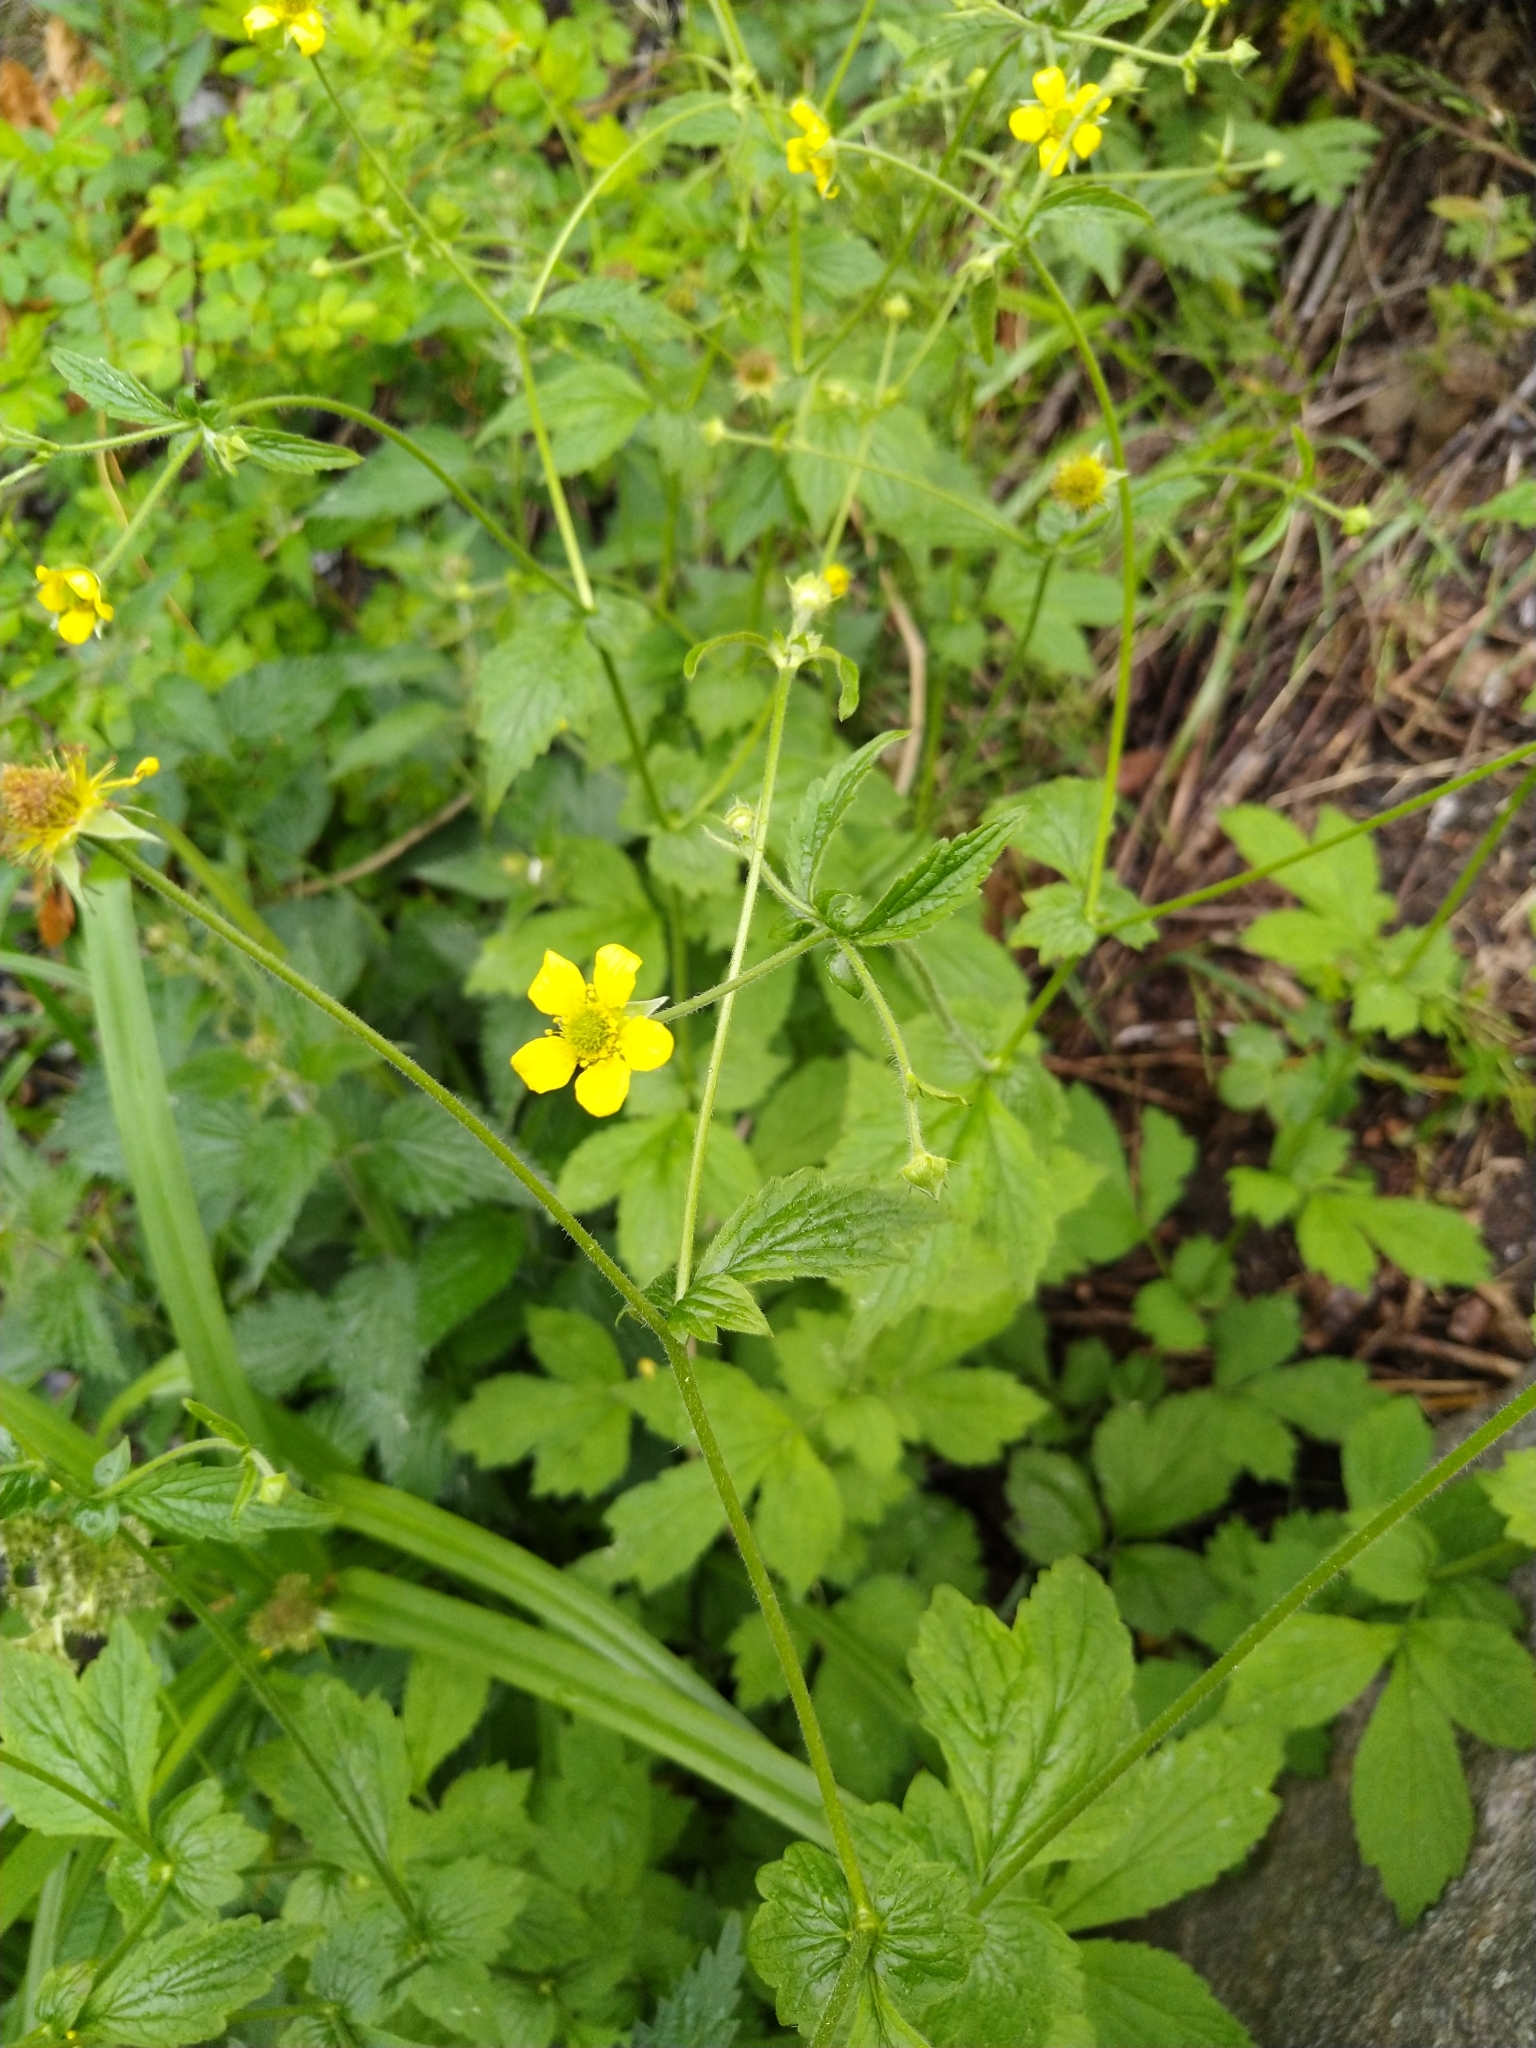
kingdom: Plantae
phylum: Tracheophyta
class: Magnoliopsida
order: Rosales
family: Rosaceae
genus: Geum
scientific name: Geum urbanum
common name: Wood avens
